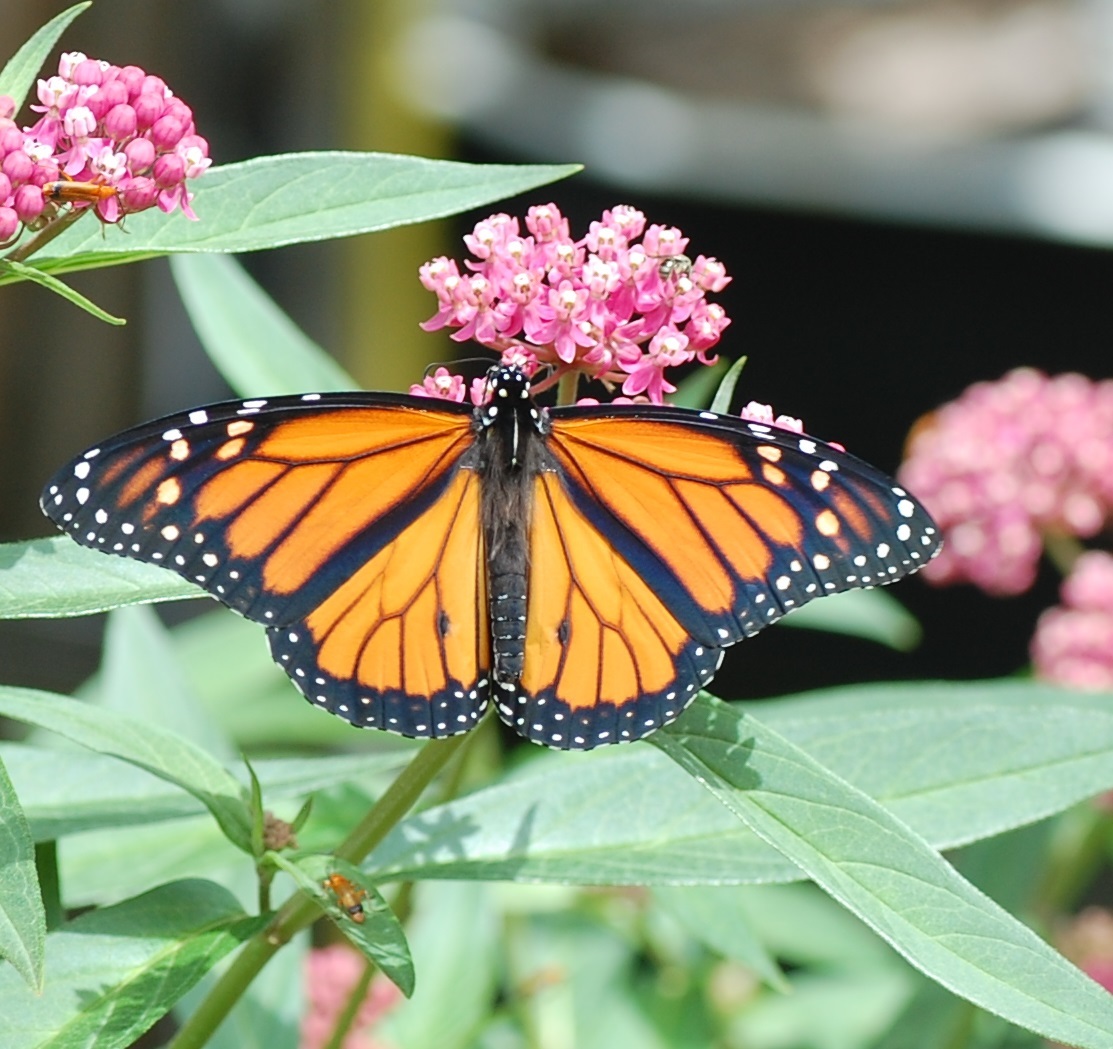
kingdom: Animalia
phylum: Arthropoda
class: Insecta
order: Lepidoptera
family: Nymphalidae
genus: Danaus
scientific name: Danaus plexippus
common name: Monarch
